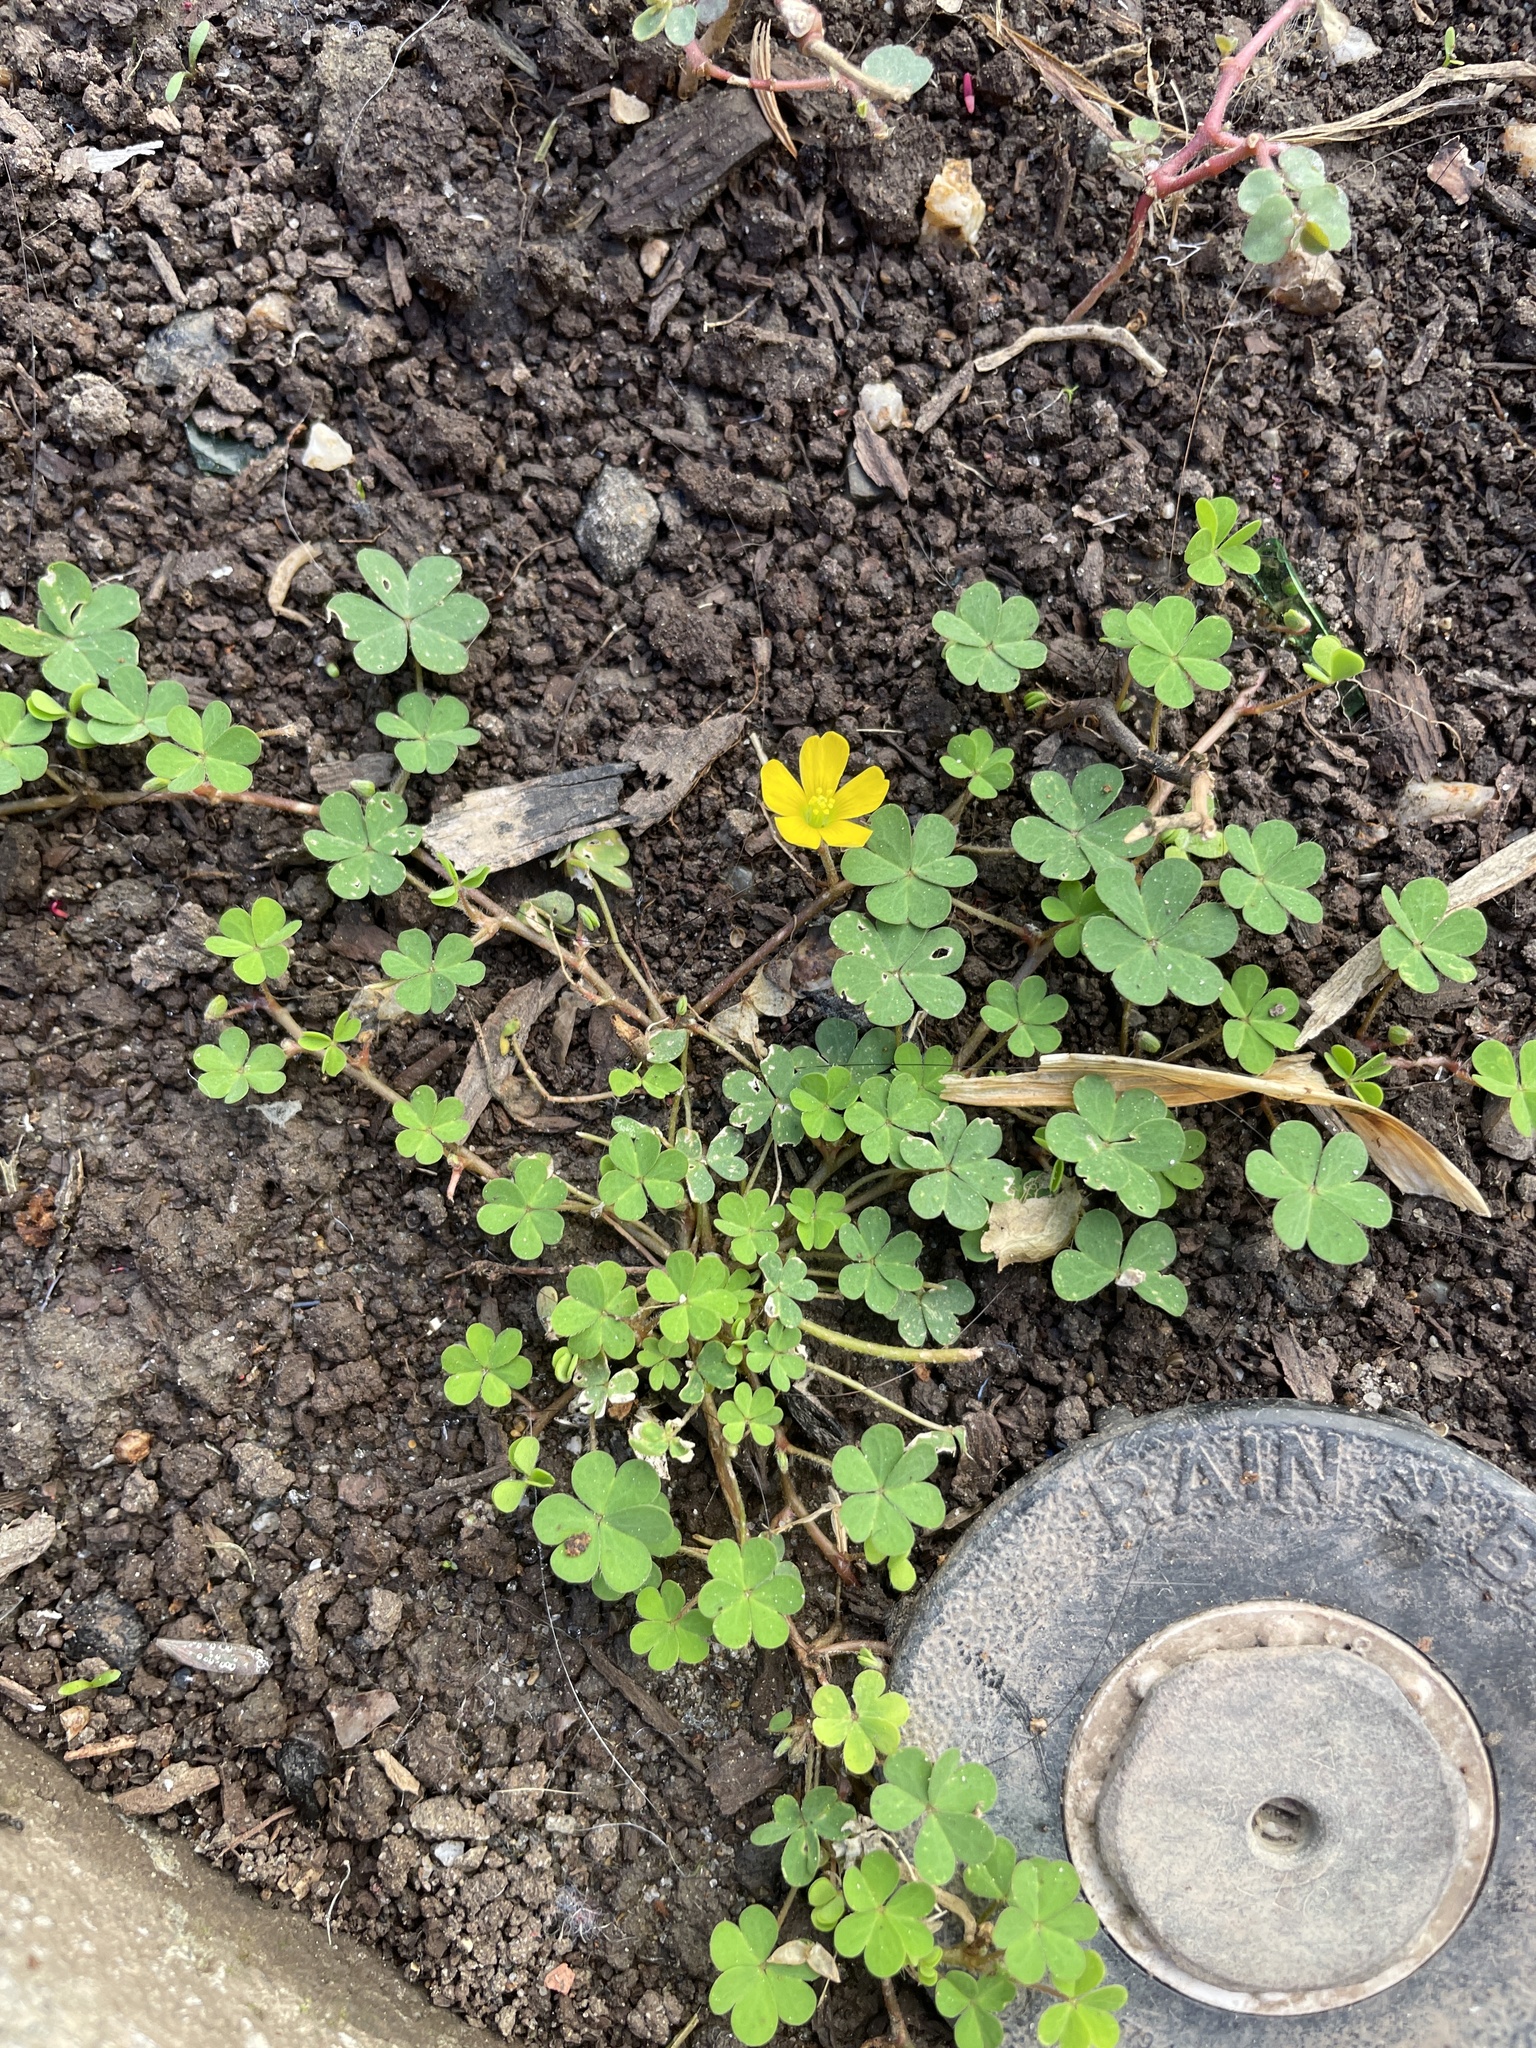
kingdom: Plantae
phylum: Tracheophyta
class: Magnoliopsida
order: Oxalidales
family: Oxalidaceae
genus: Oxalis
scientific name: Oxalis corniculata
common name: Procumbent yellow-sorrel
